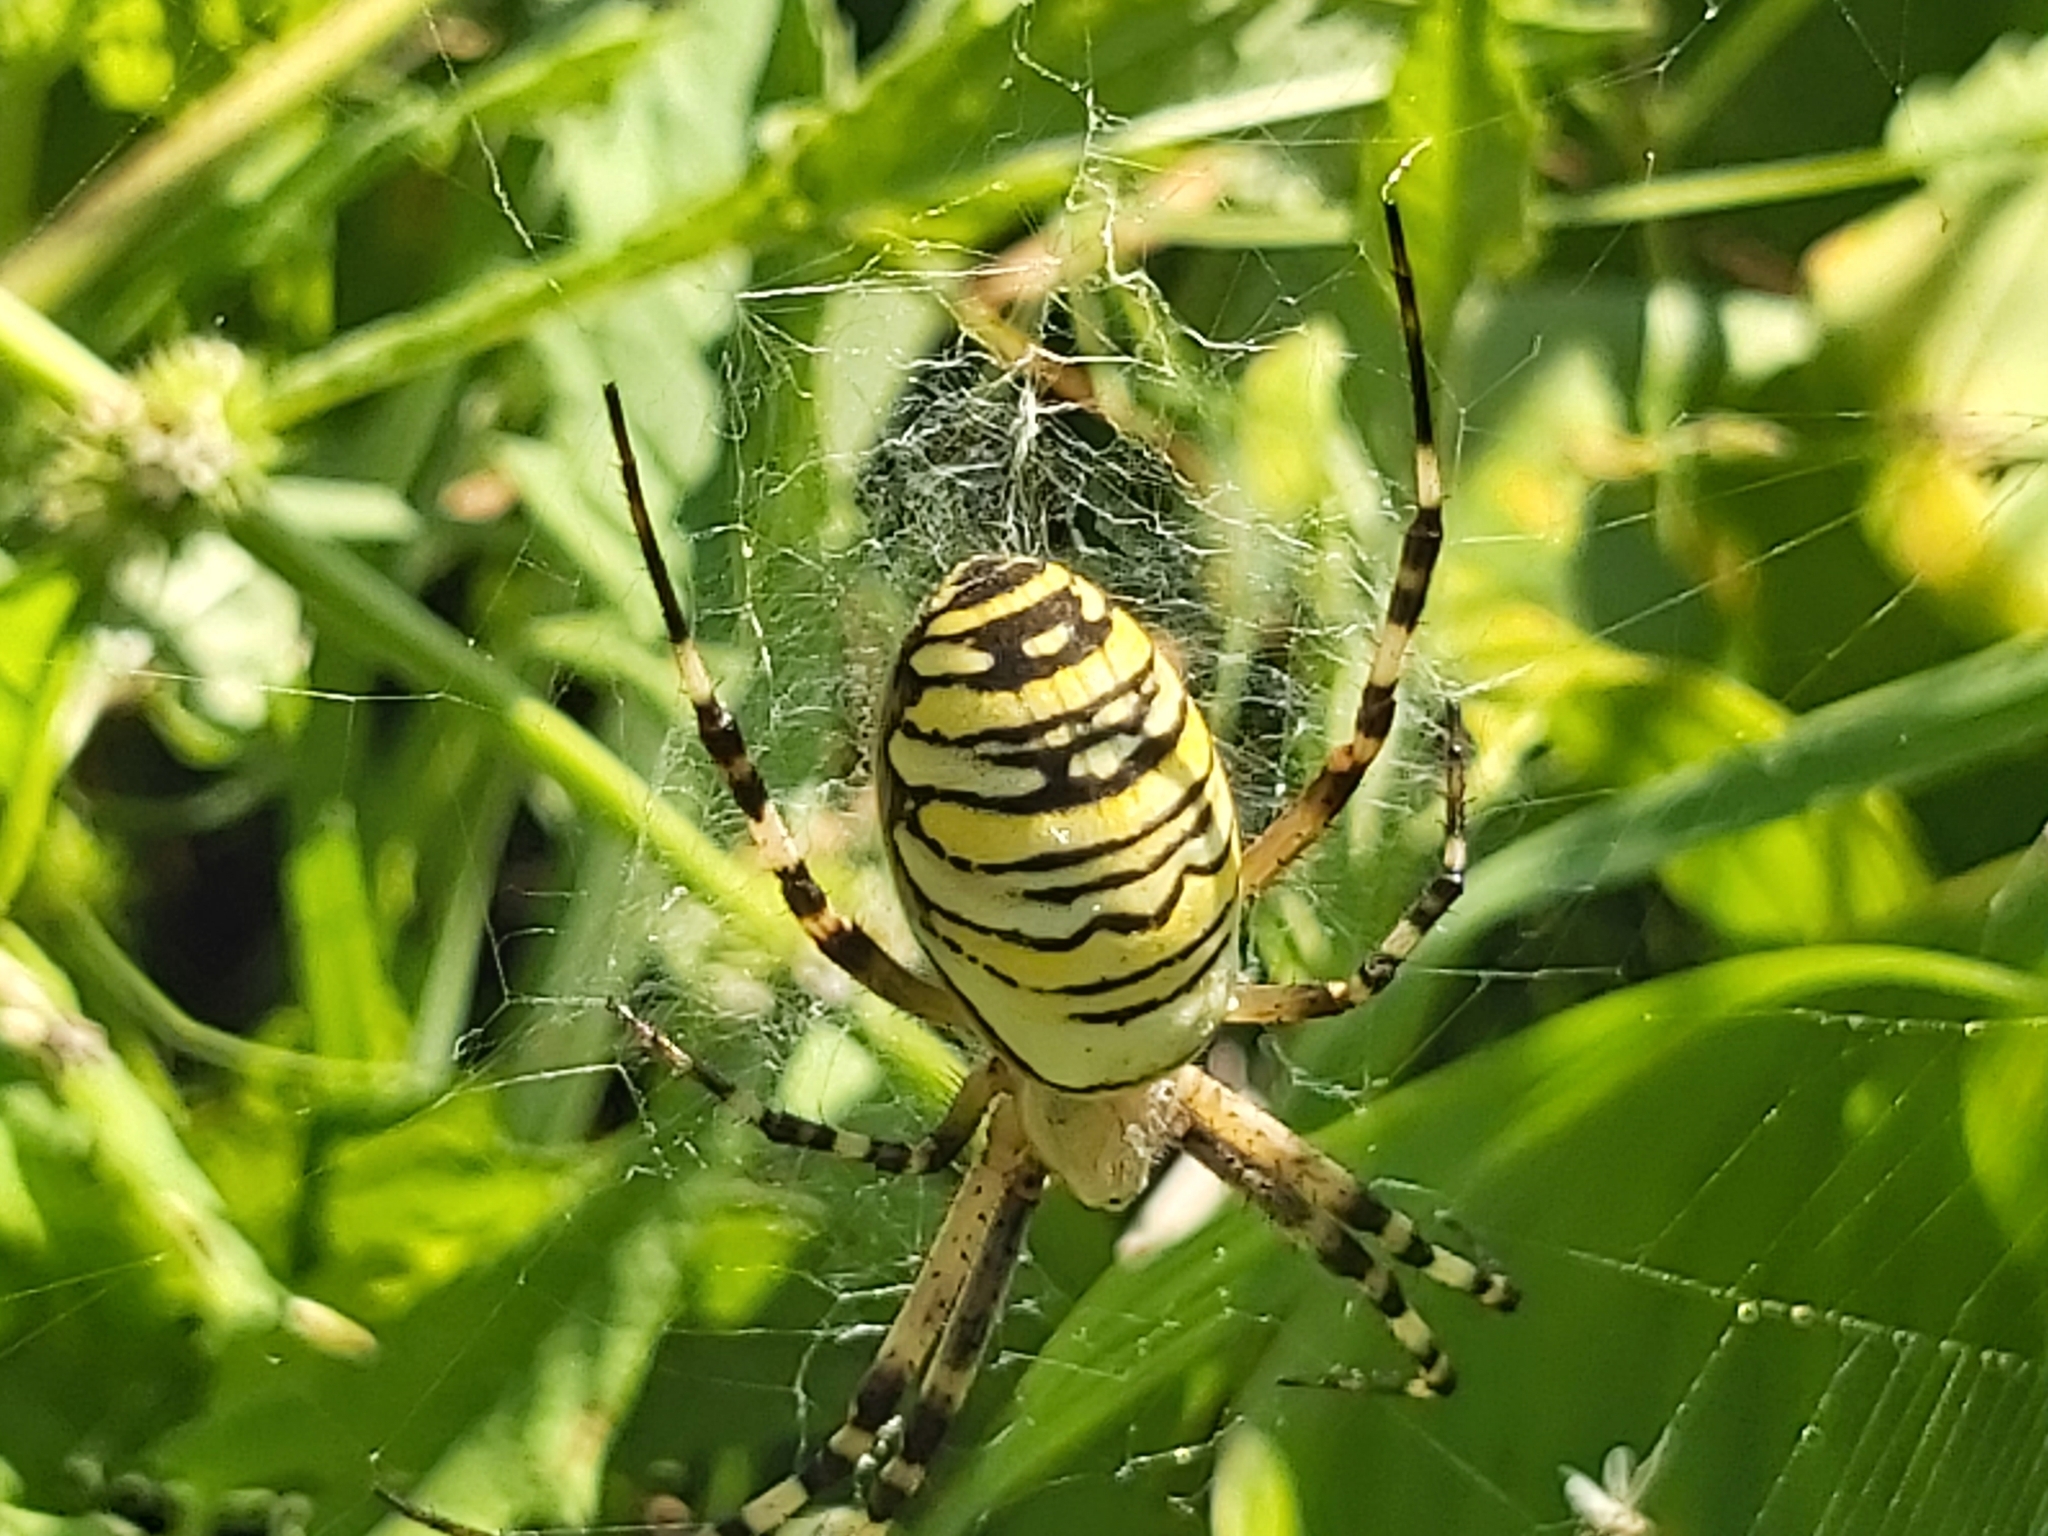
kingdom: Animalia
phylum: Arthropoda
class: Arachnida
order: Araneae
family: Araneidae
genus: Argiope
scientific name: Argiope bruennichi
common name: Wasp spider
